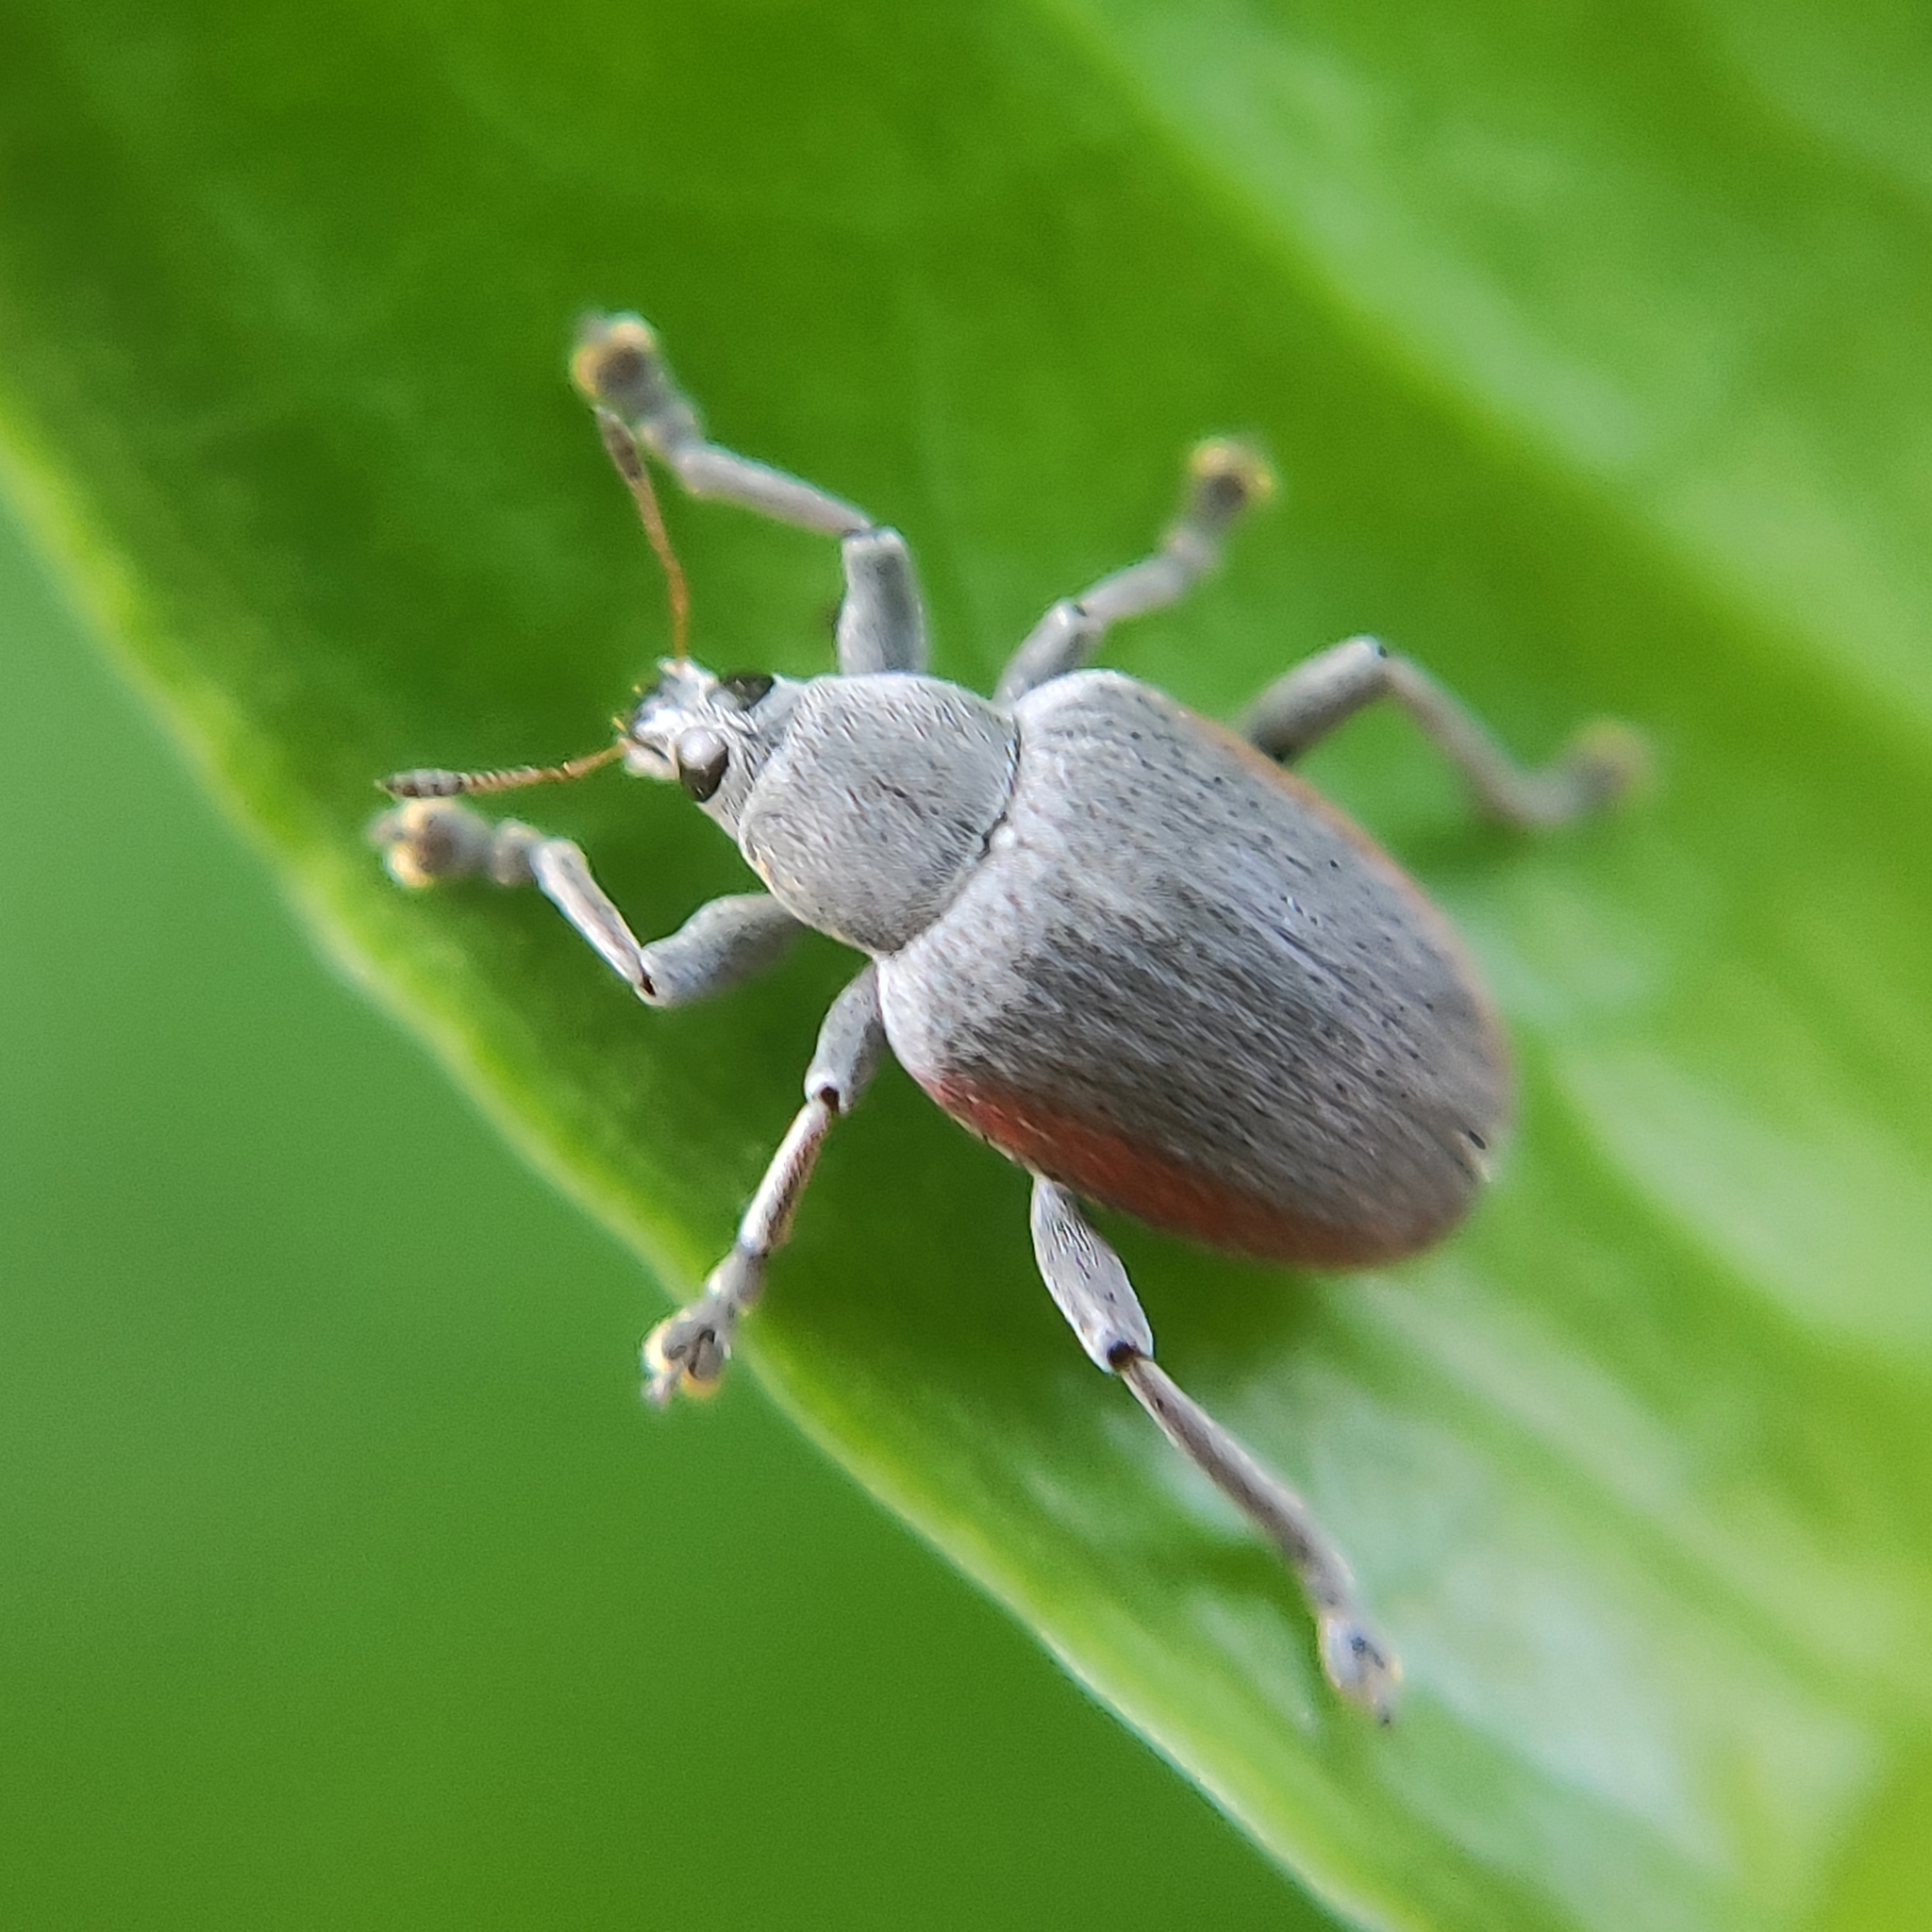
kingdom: Animalia
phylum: Arthropoda
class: Insecta
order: Coleoptera
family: Curculionidae
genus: Haplopus
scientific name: Haplopus submarginalis
